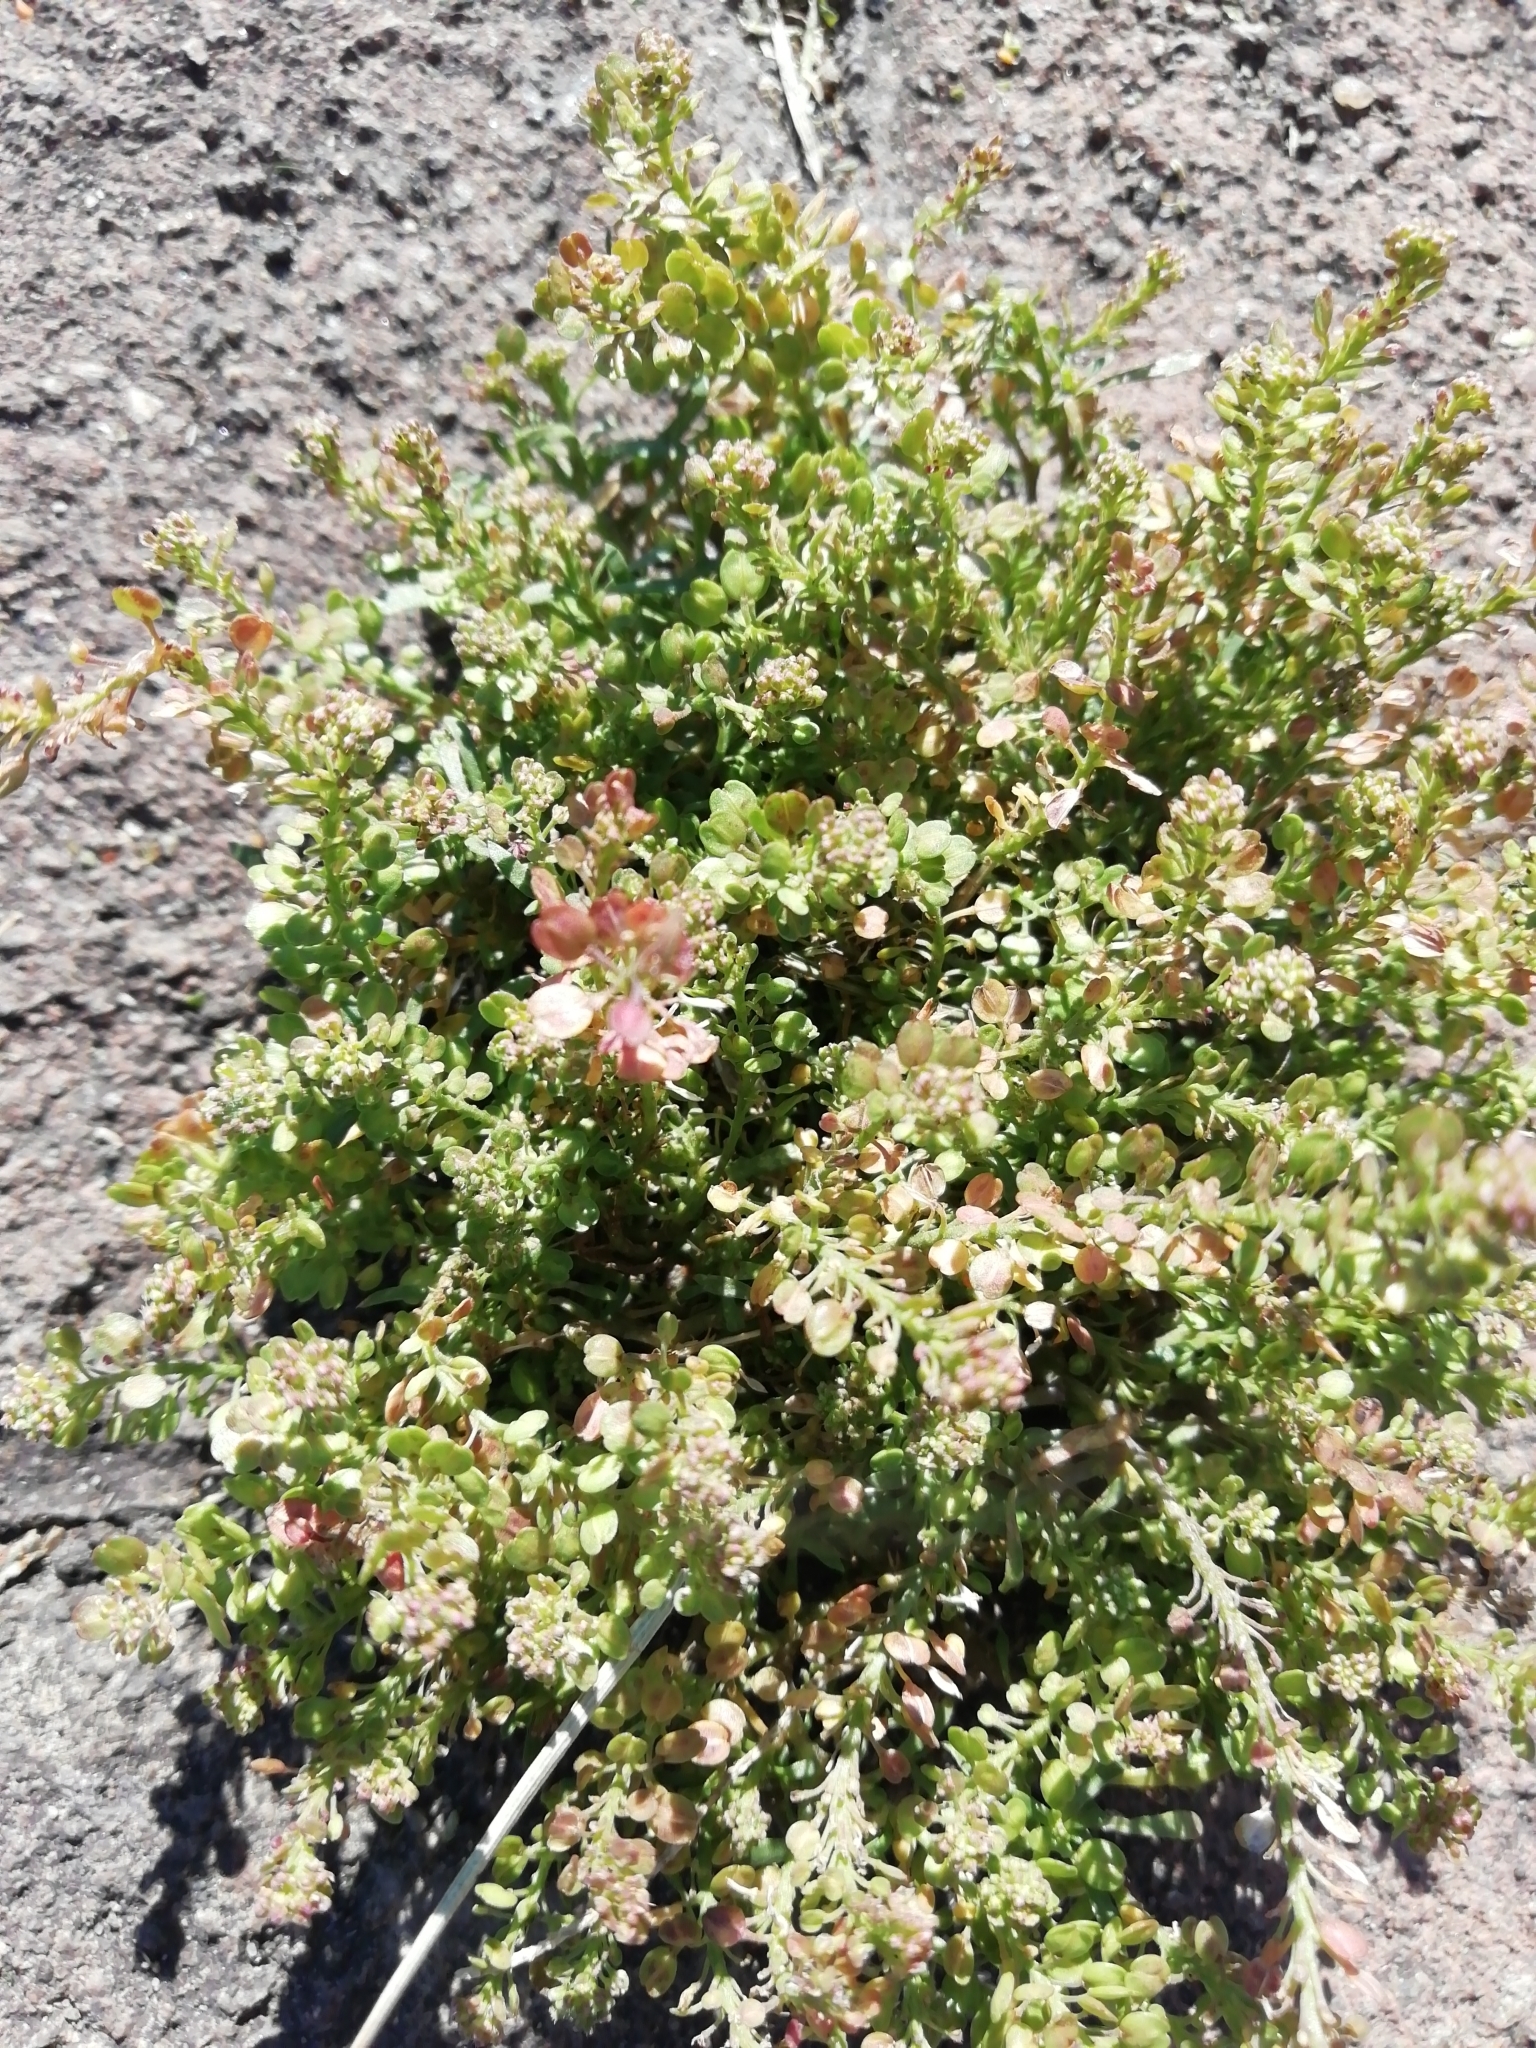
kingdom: Plantae
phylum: Tracheophyta
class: Magnoliopsida
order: Brassicales
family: Brassicaceae
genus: Lepidium
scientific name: Lepidium densiflorum
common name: Miner's pepperwort
